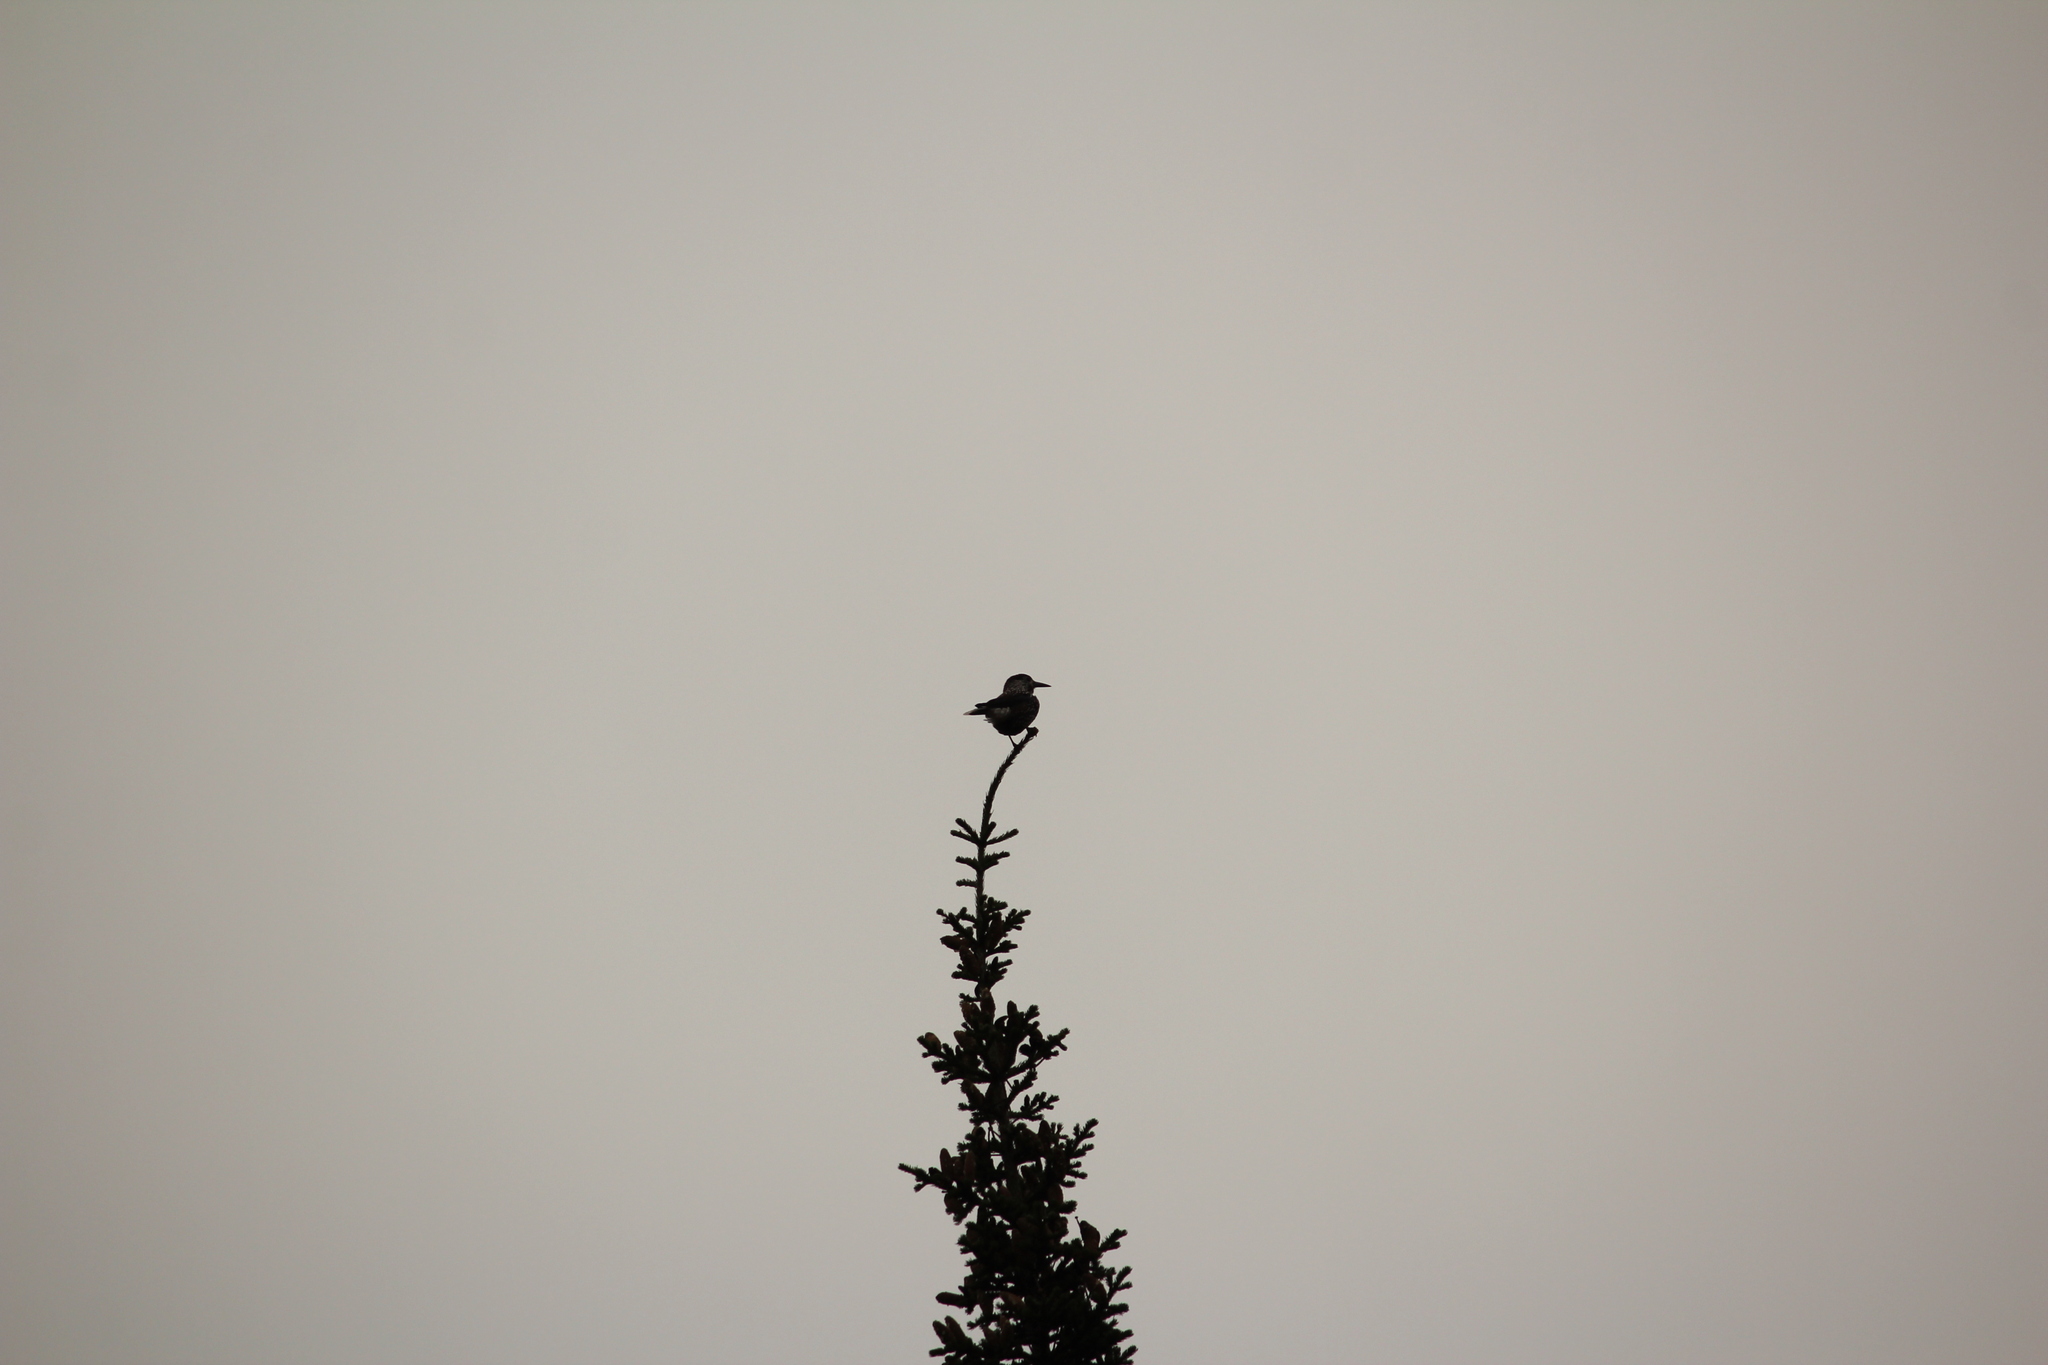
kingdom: Animalia
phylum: Chordata
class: Aves
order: Passeriformes
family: Corvidae
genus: Nucifraga
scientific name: Nucifraga caryocatactes
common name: Spotted nutcracker
